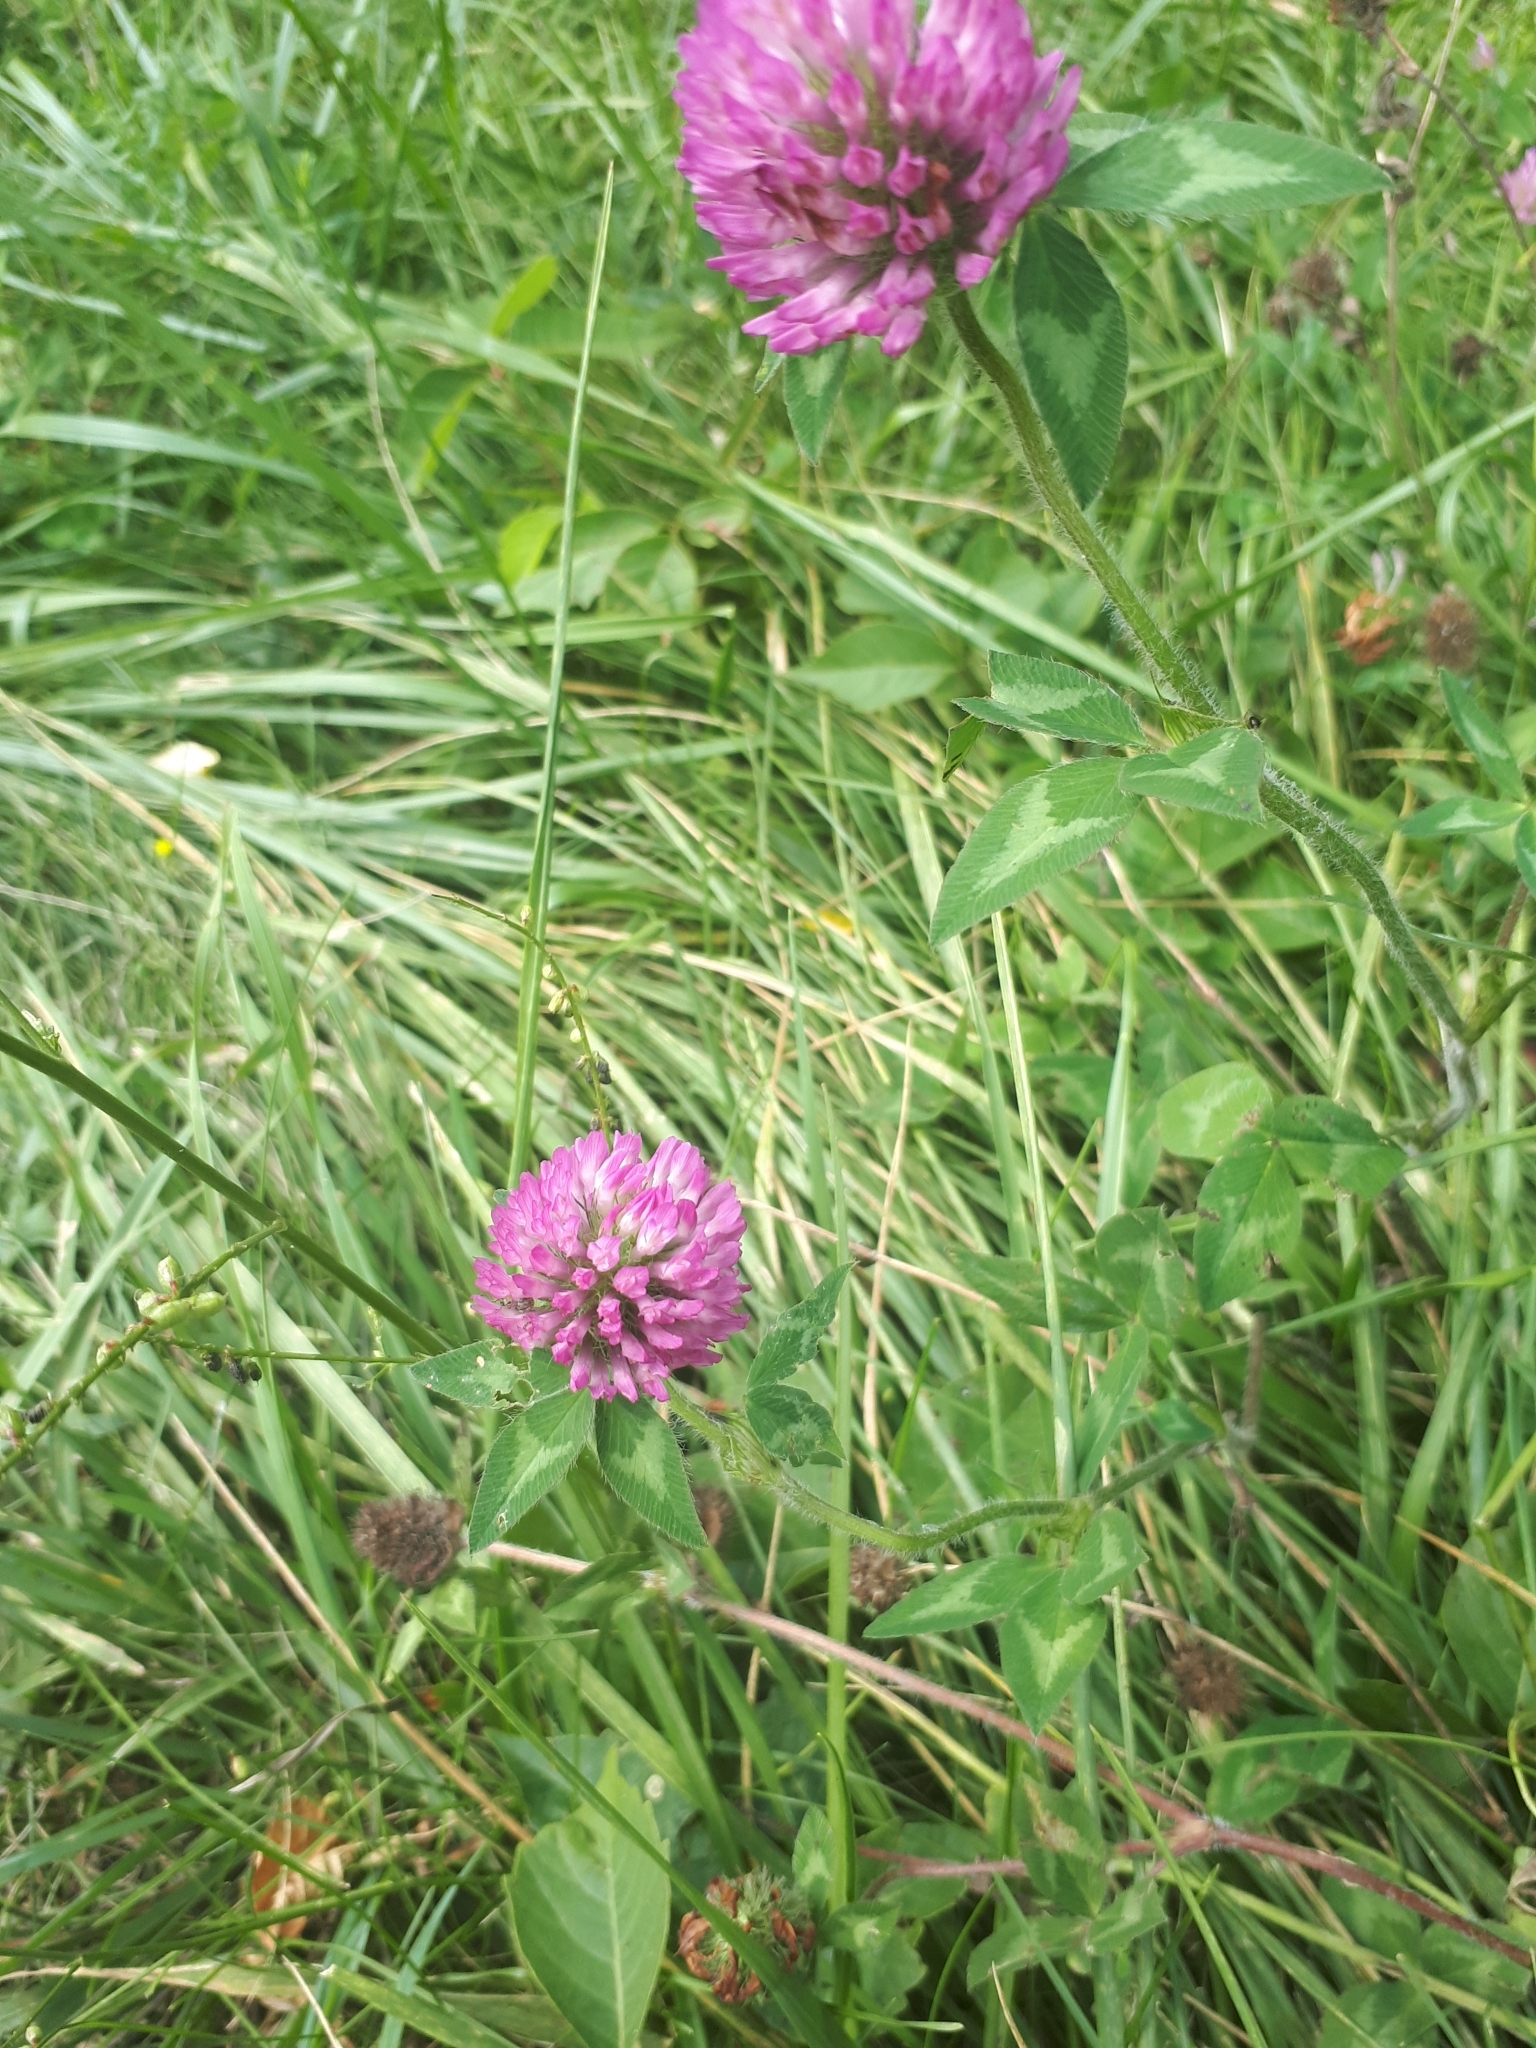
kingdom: Plantae
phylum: Tracheophyta
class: Magnoliopsida
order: Fabales
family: Fabaceae
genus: Trifolium
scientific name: Trifolium pratense
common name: Red clover
